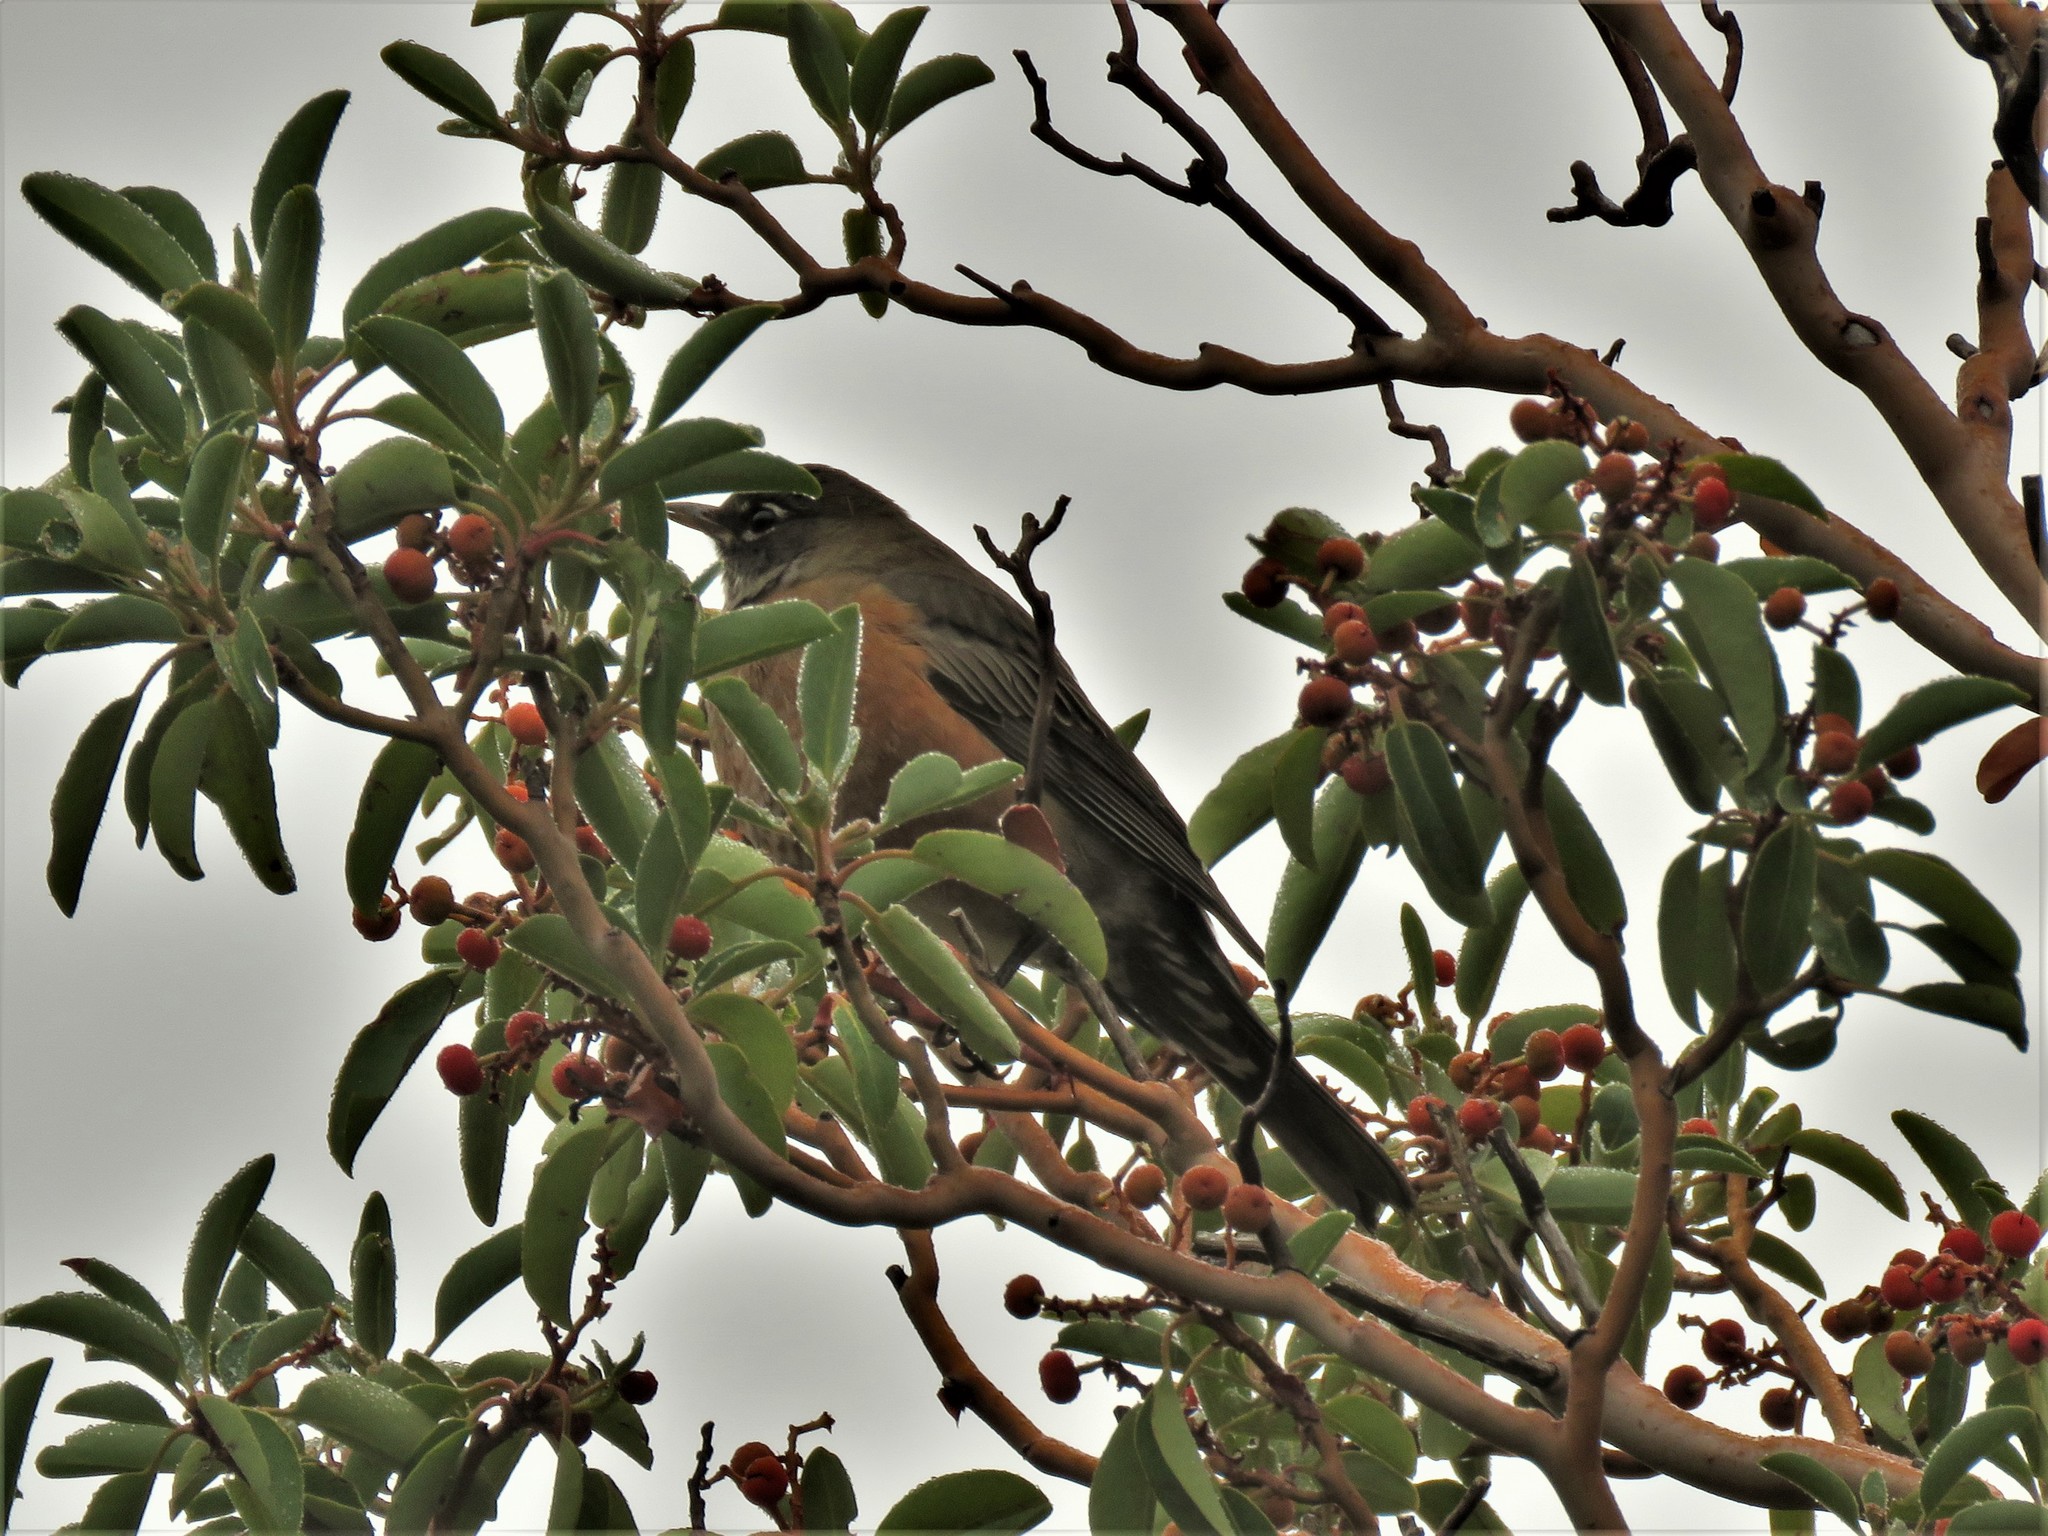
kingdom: Animalia
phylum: Chordata
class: Aves
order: Passeriformes
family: Turdidae
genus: Turdus
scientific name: Turdus migratorius
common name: American robin
